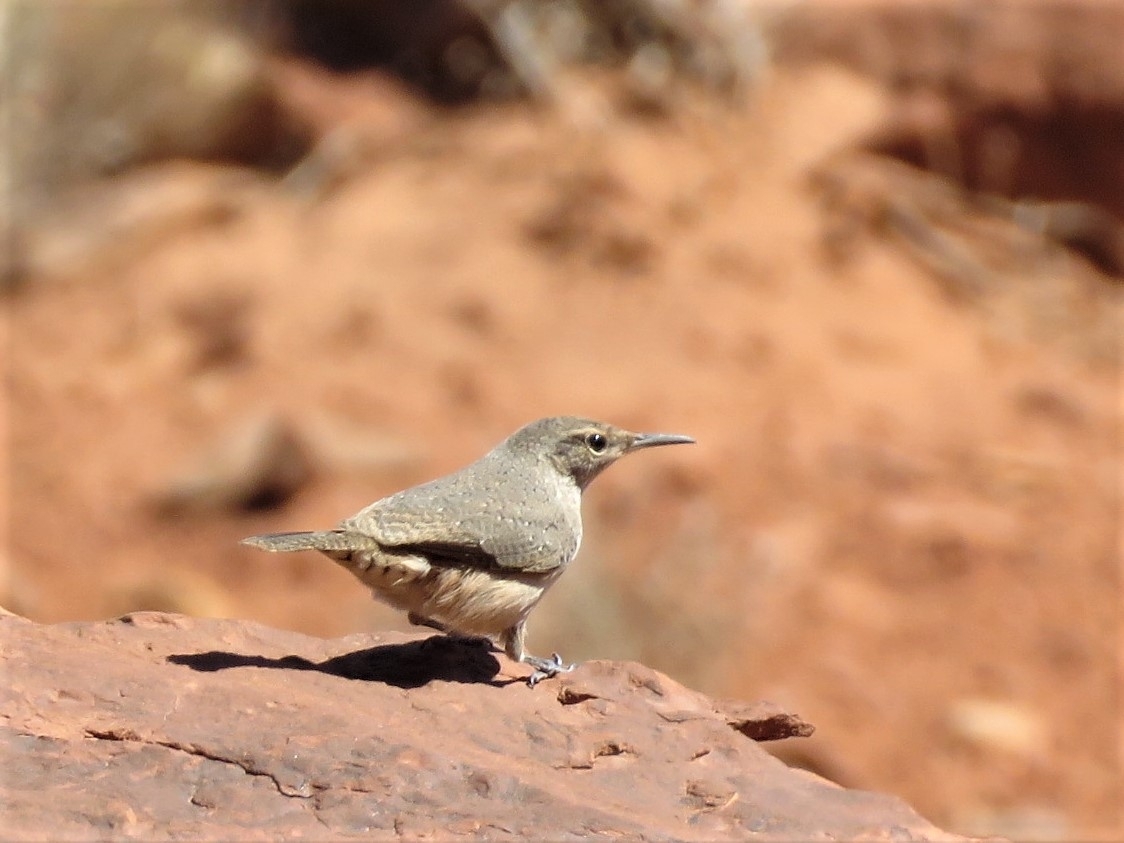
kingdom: Animalia
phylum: Chordata
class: Aves
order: Passeriformes
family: Troglodytidae
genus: Salpinctes
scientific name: Salpinctes obsoletus
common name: Rock wren
